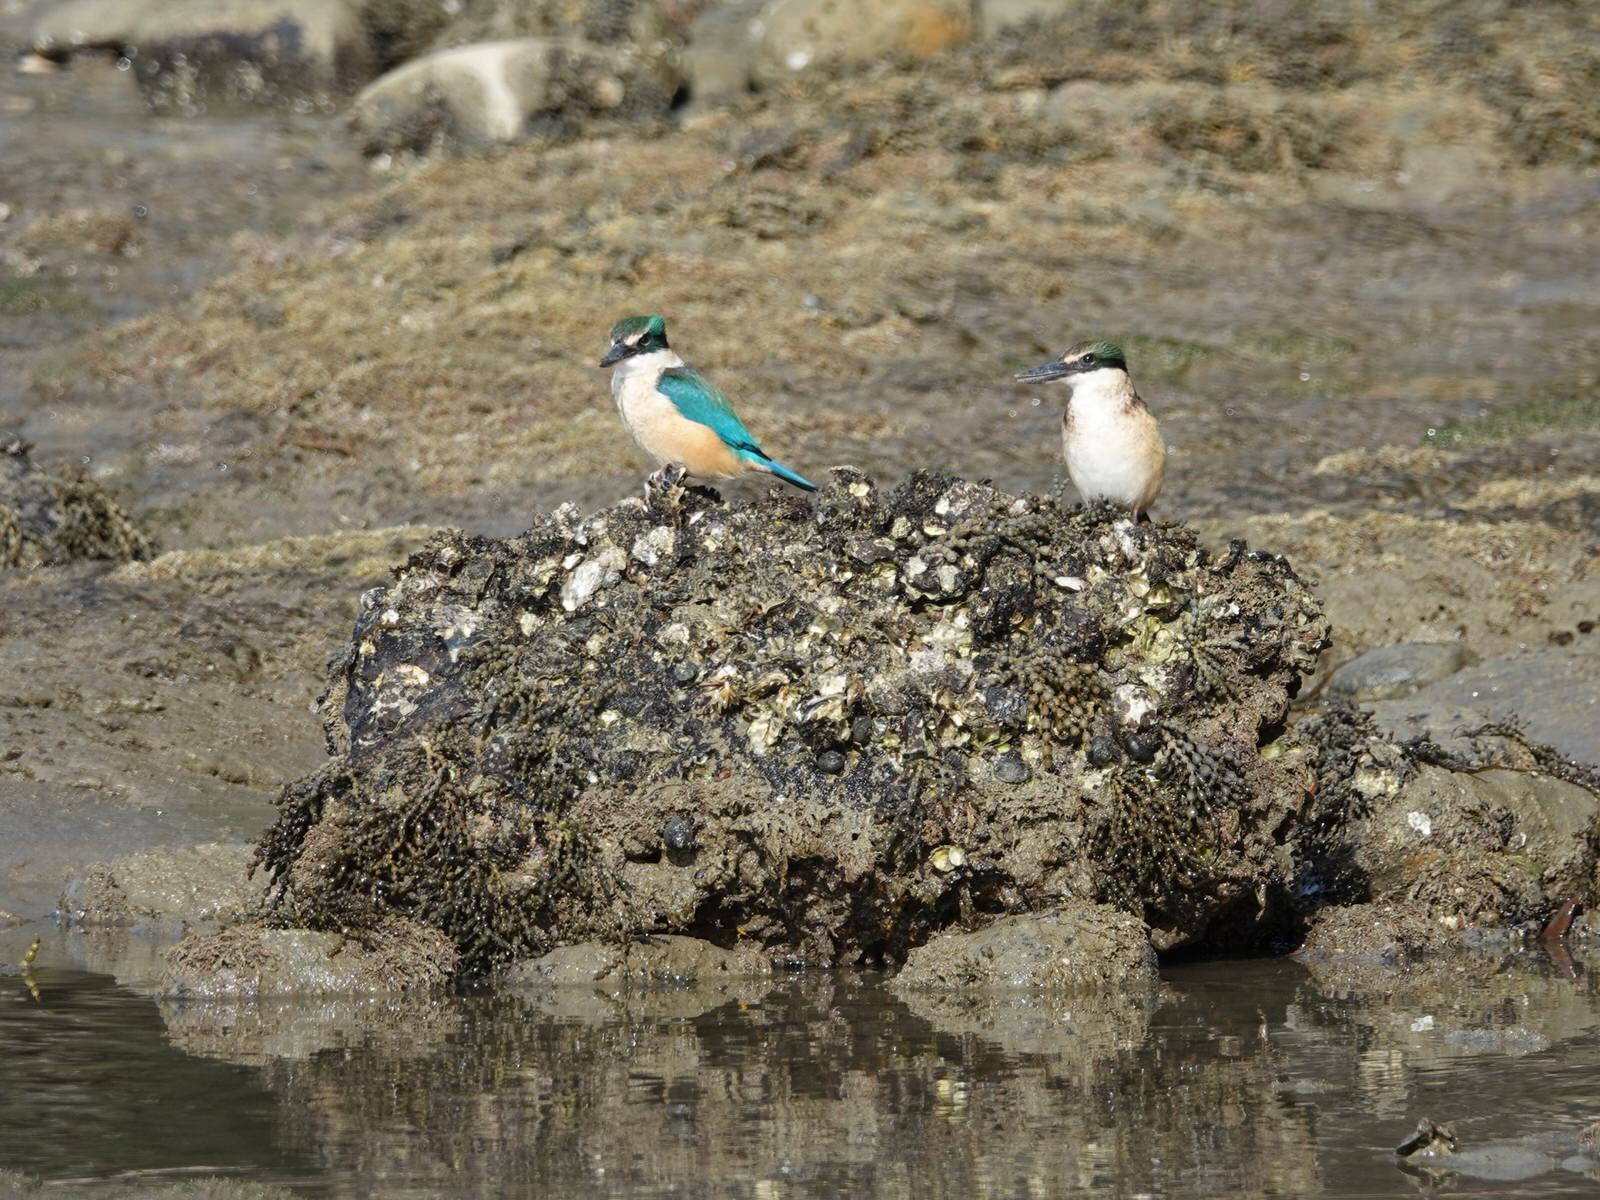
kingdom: Animalia
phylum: Chordata
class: Aves
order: Coraciiformes
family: Alcedinidae
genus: Todiramphus
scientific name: Todiramphus sanctus
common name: Sacred kingfisher
